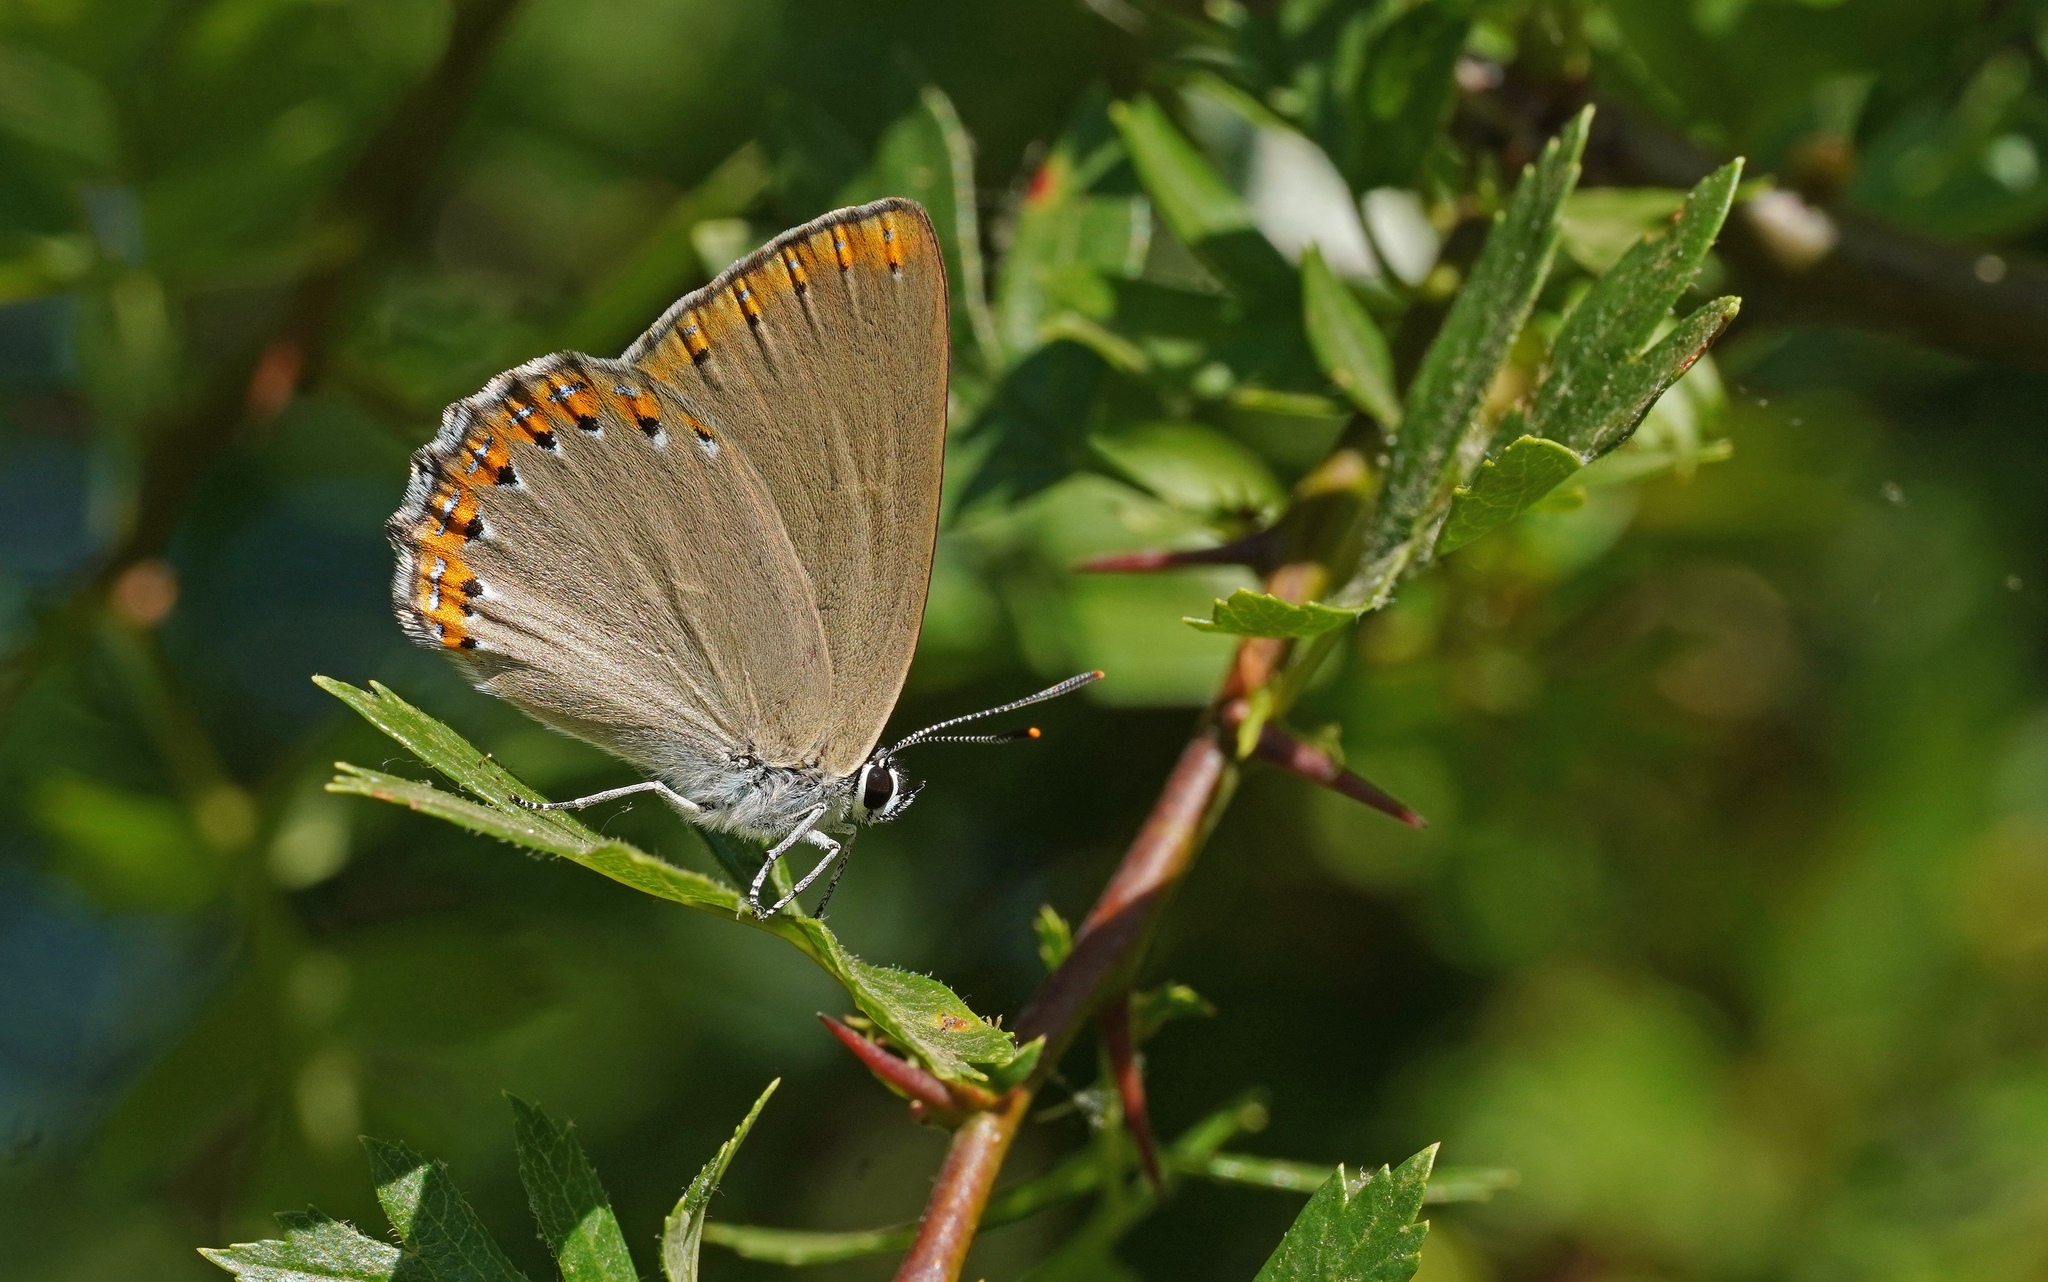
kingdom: Animalia
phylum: Arthropoda
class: Insecta
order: Lepidoptera
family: Lycaenidae
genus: Laeosopis
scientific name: Laeosopis roboris
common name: Spanish purple hairstreak
